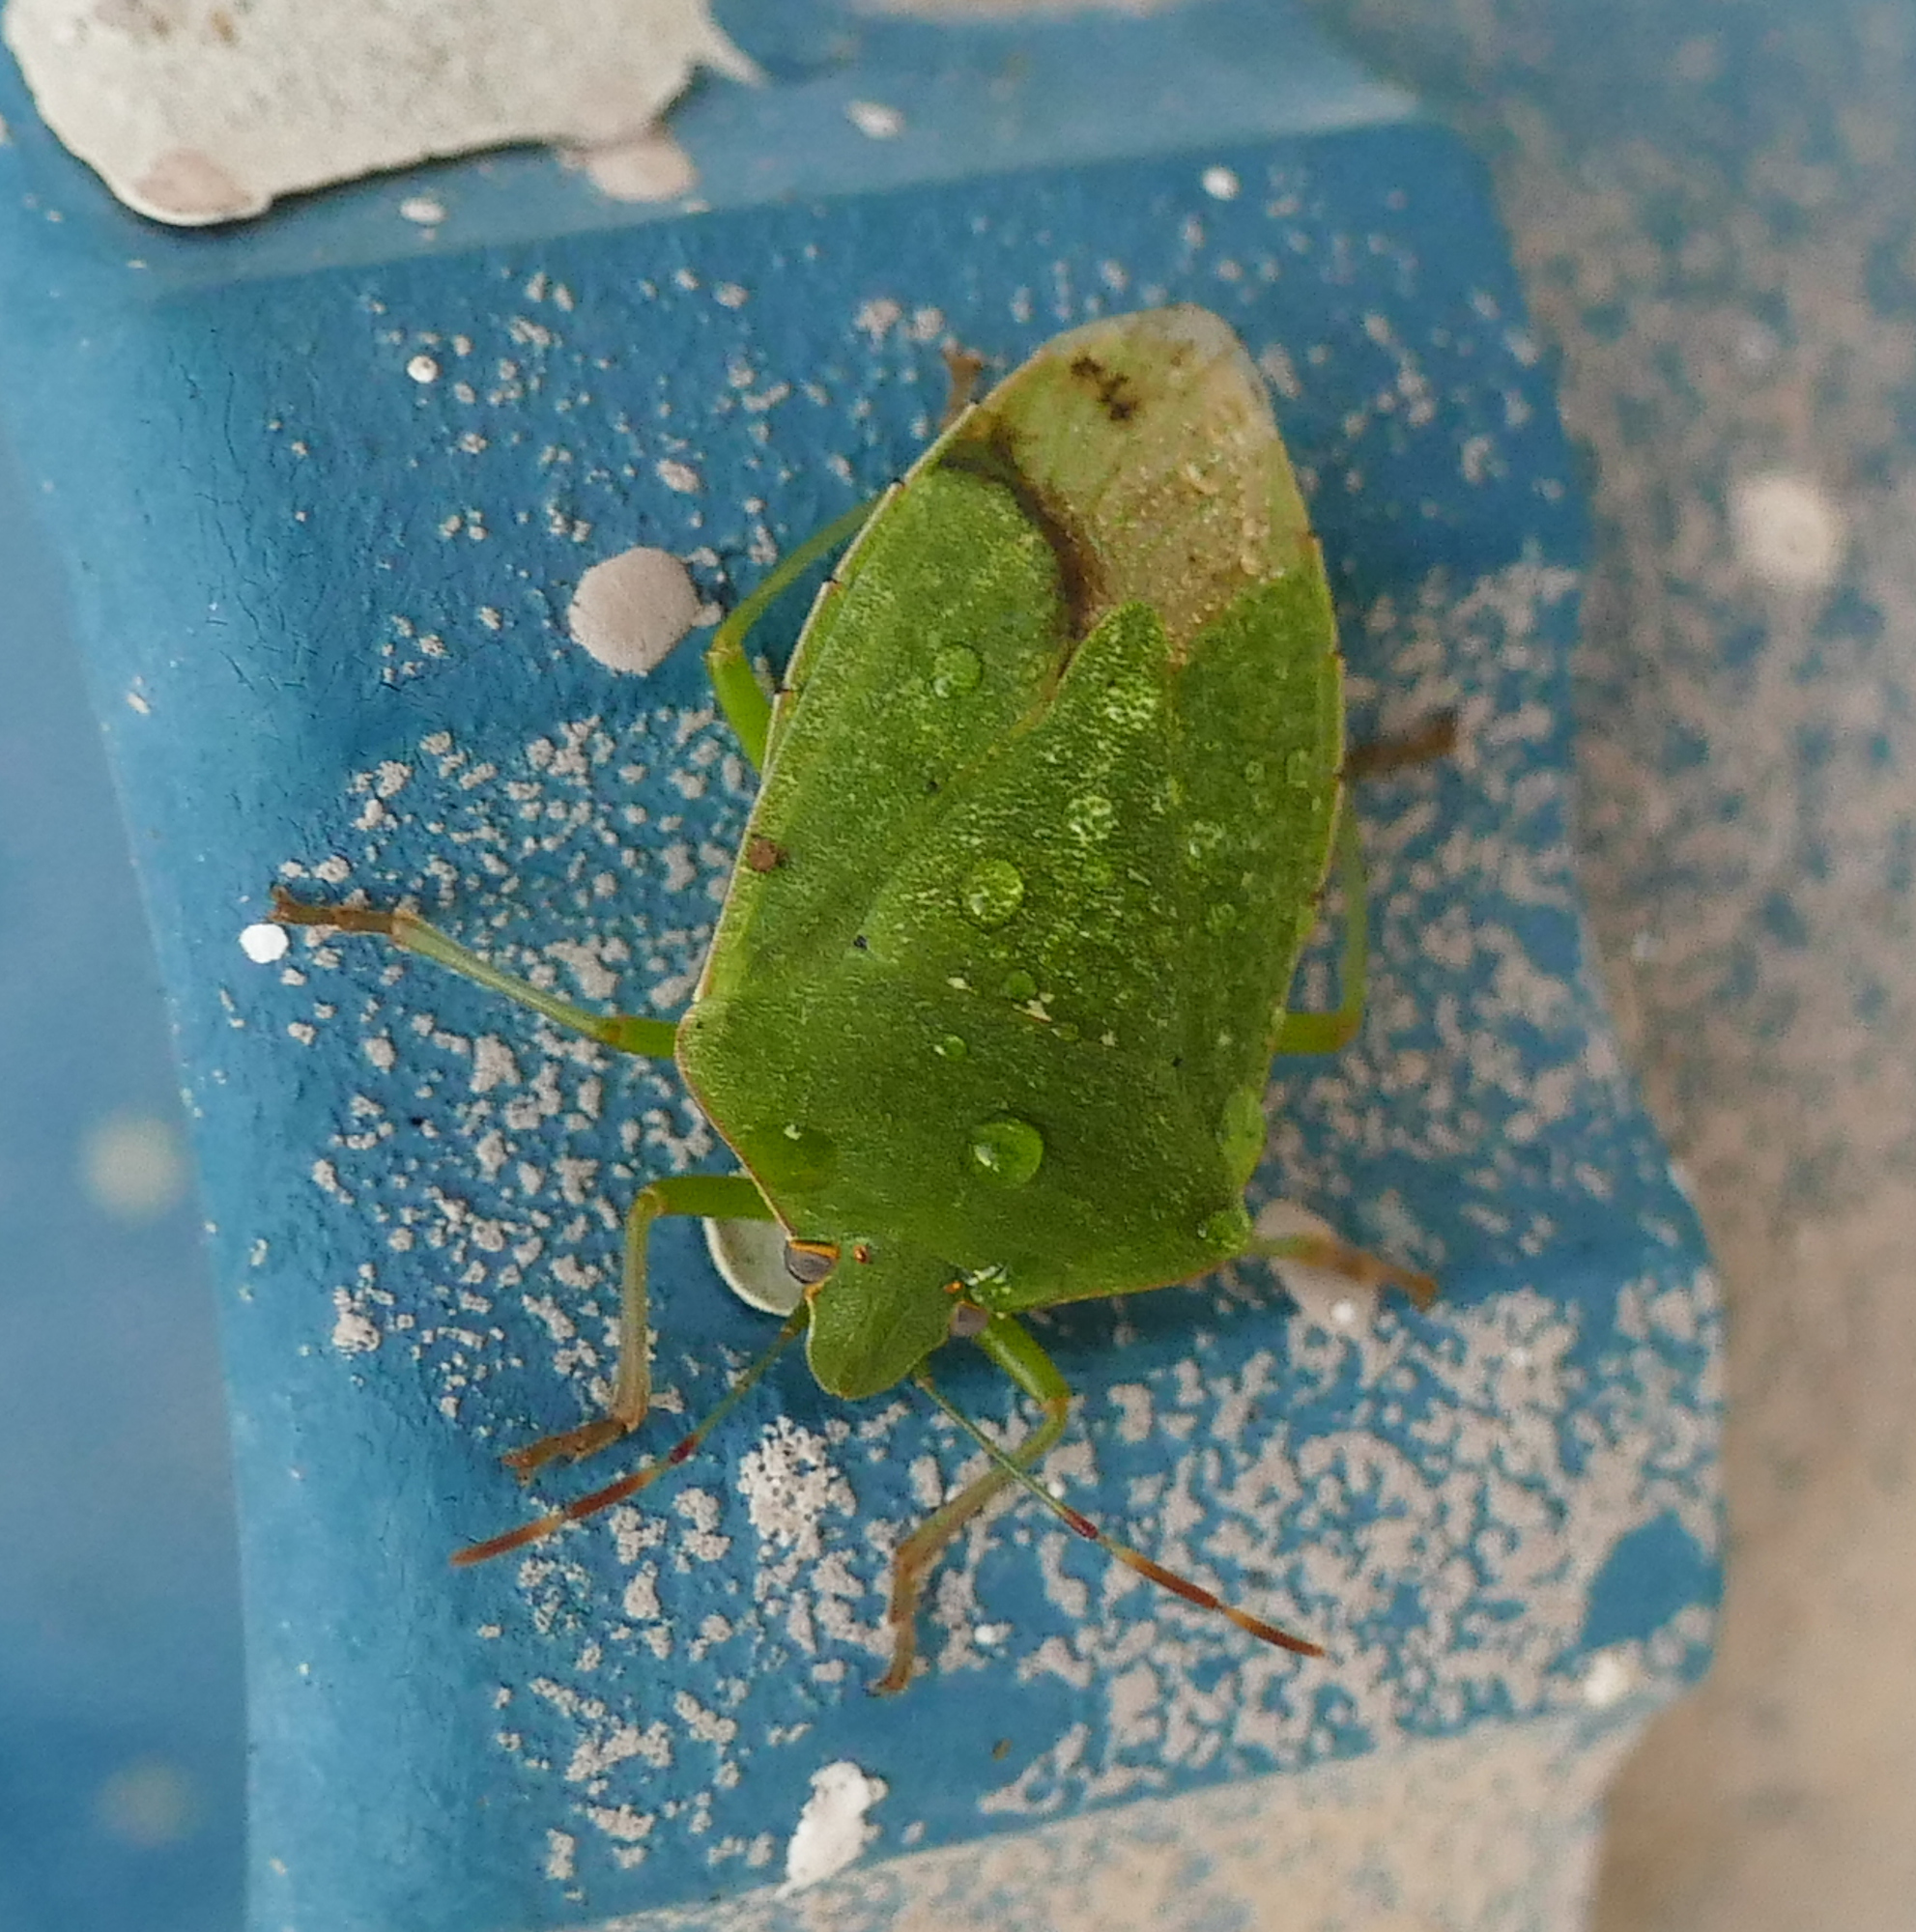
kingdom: Animalia
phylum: Arthropoda
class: Insecta
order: Hemiptera
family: Pentatomidae
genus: Nezara
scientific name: Nezara viridula
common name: Southern green stink bug
